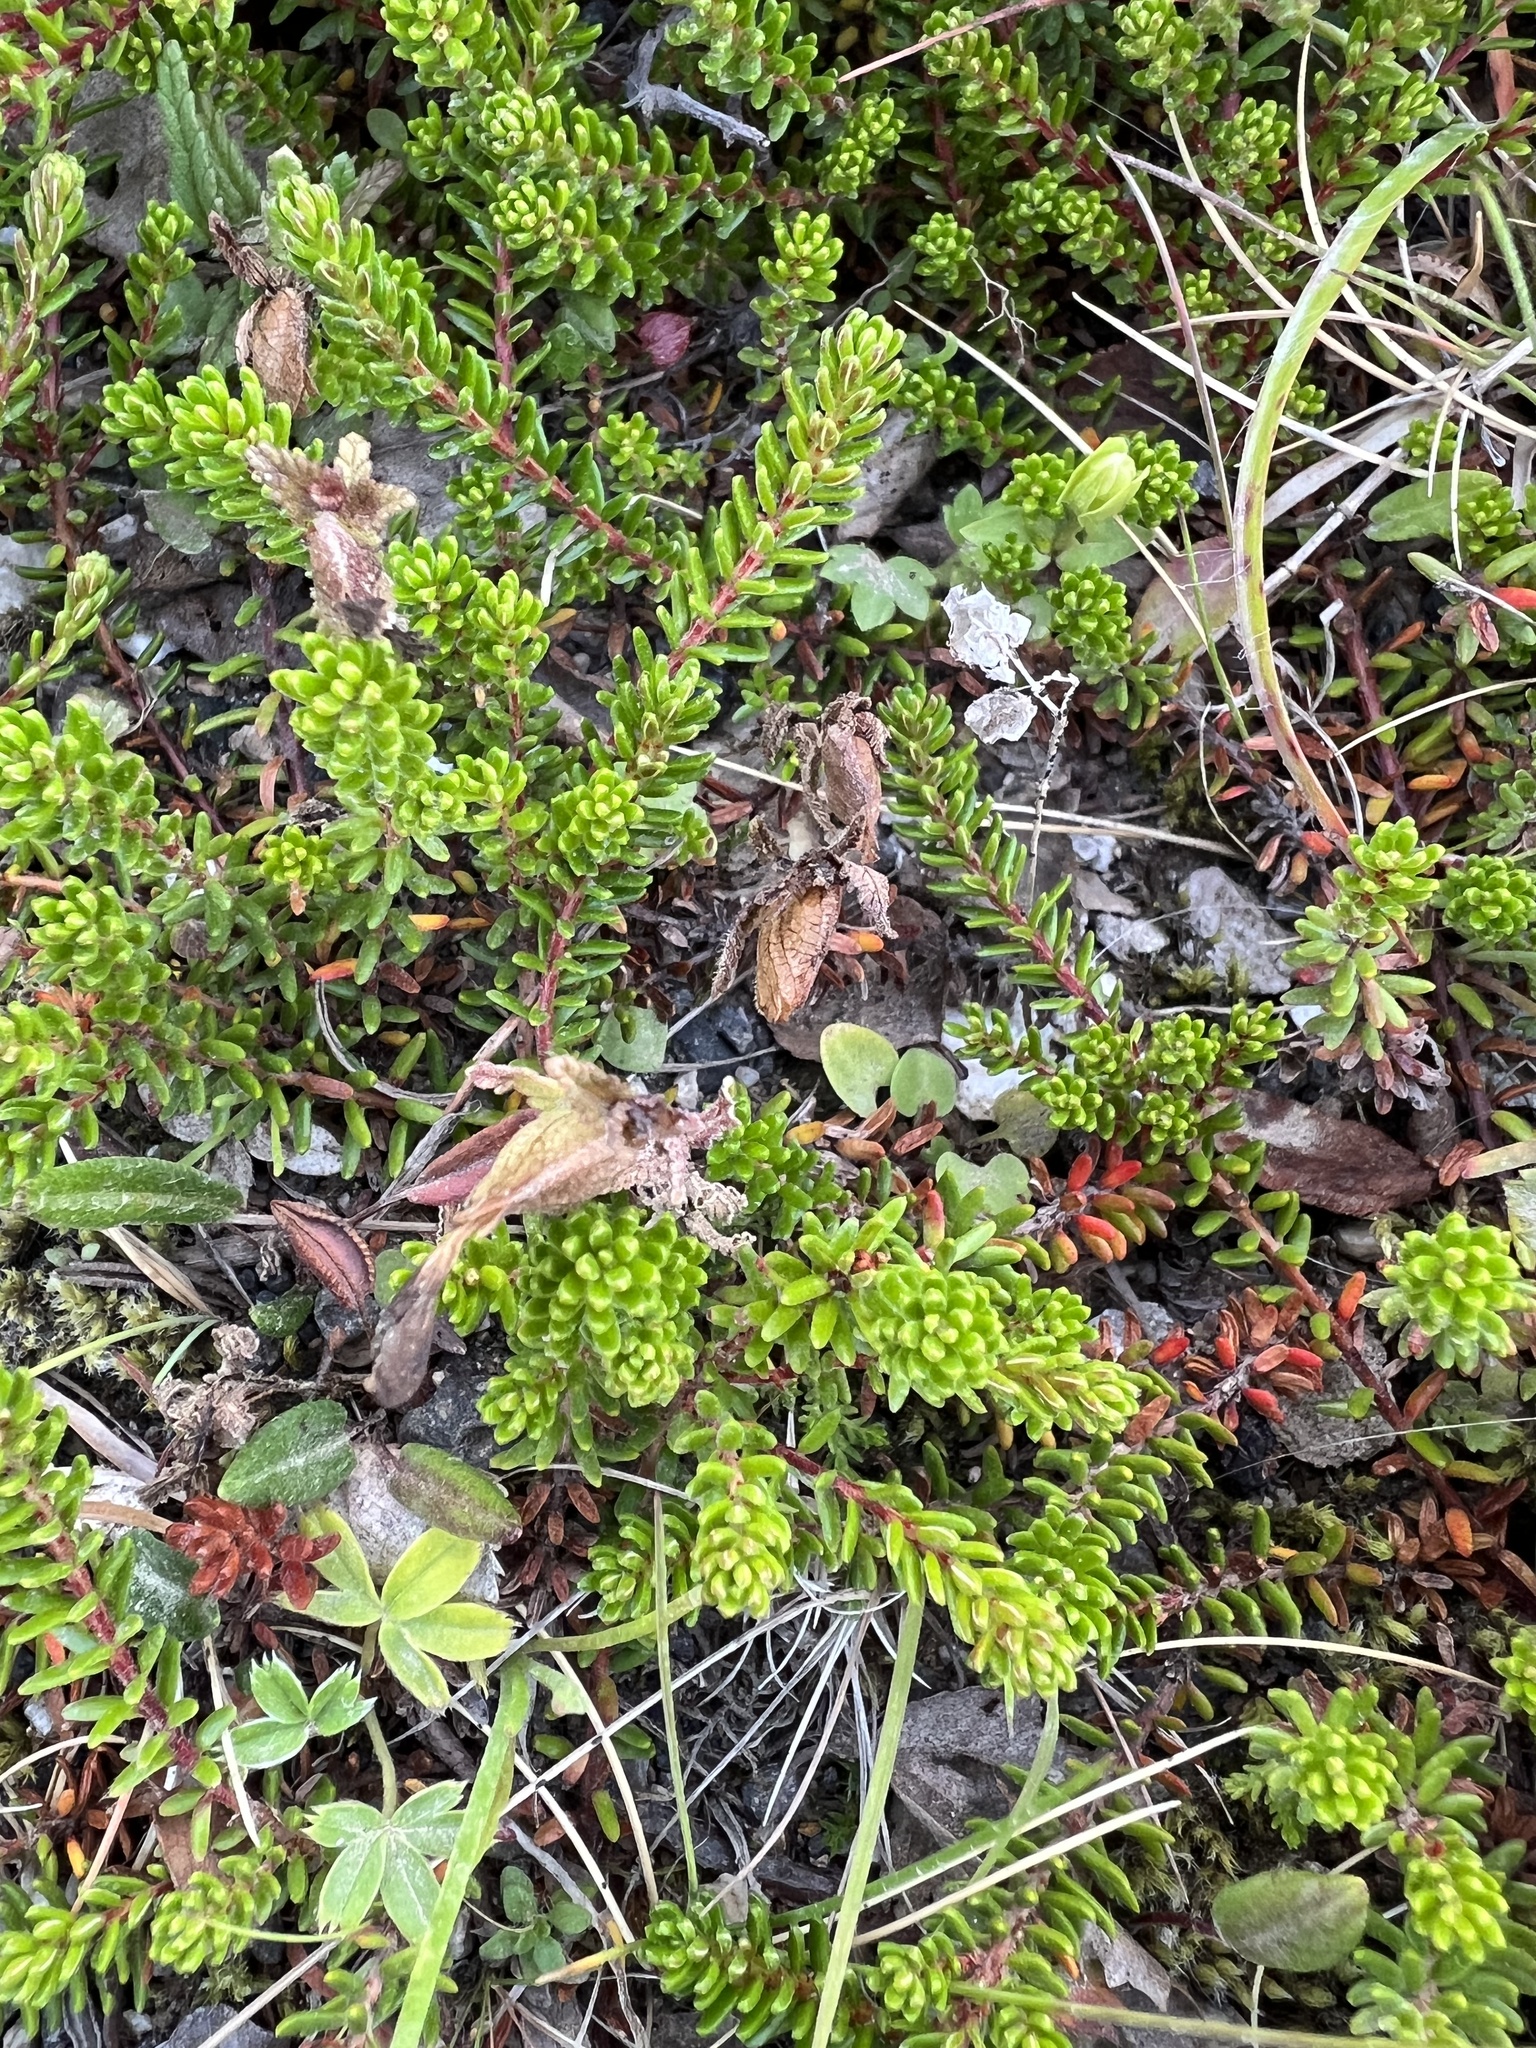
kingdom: Plantae
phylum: Tracheophyta
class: Magnoliopsida
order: Ericales
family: Ericaceae
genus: Empetrum
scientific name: Empetrum nigrum
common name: Black crowberry
